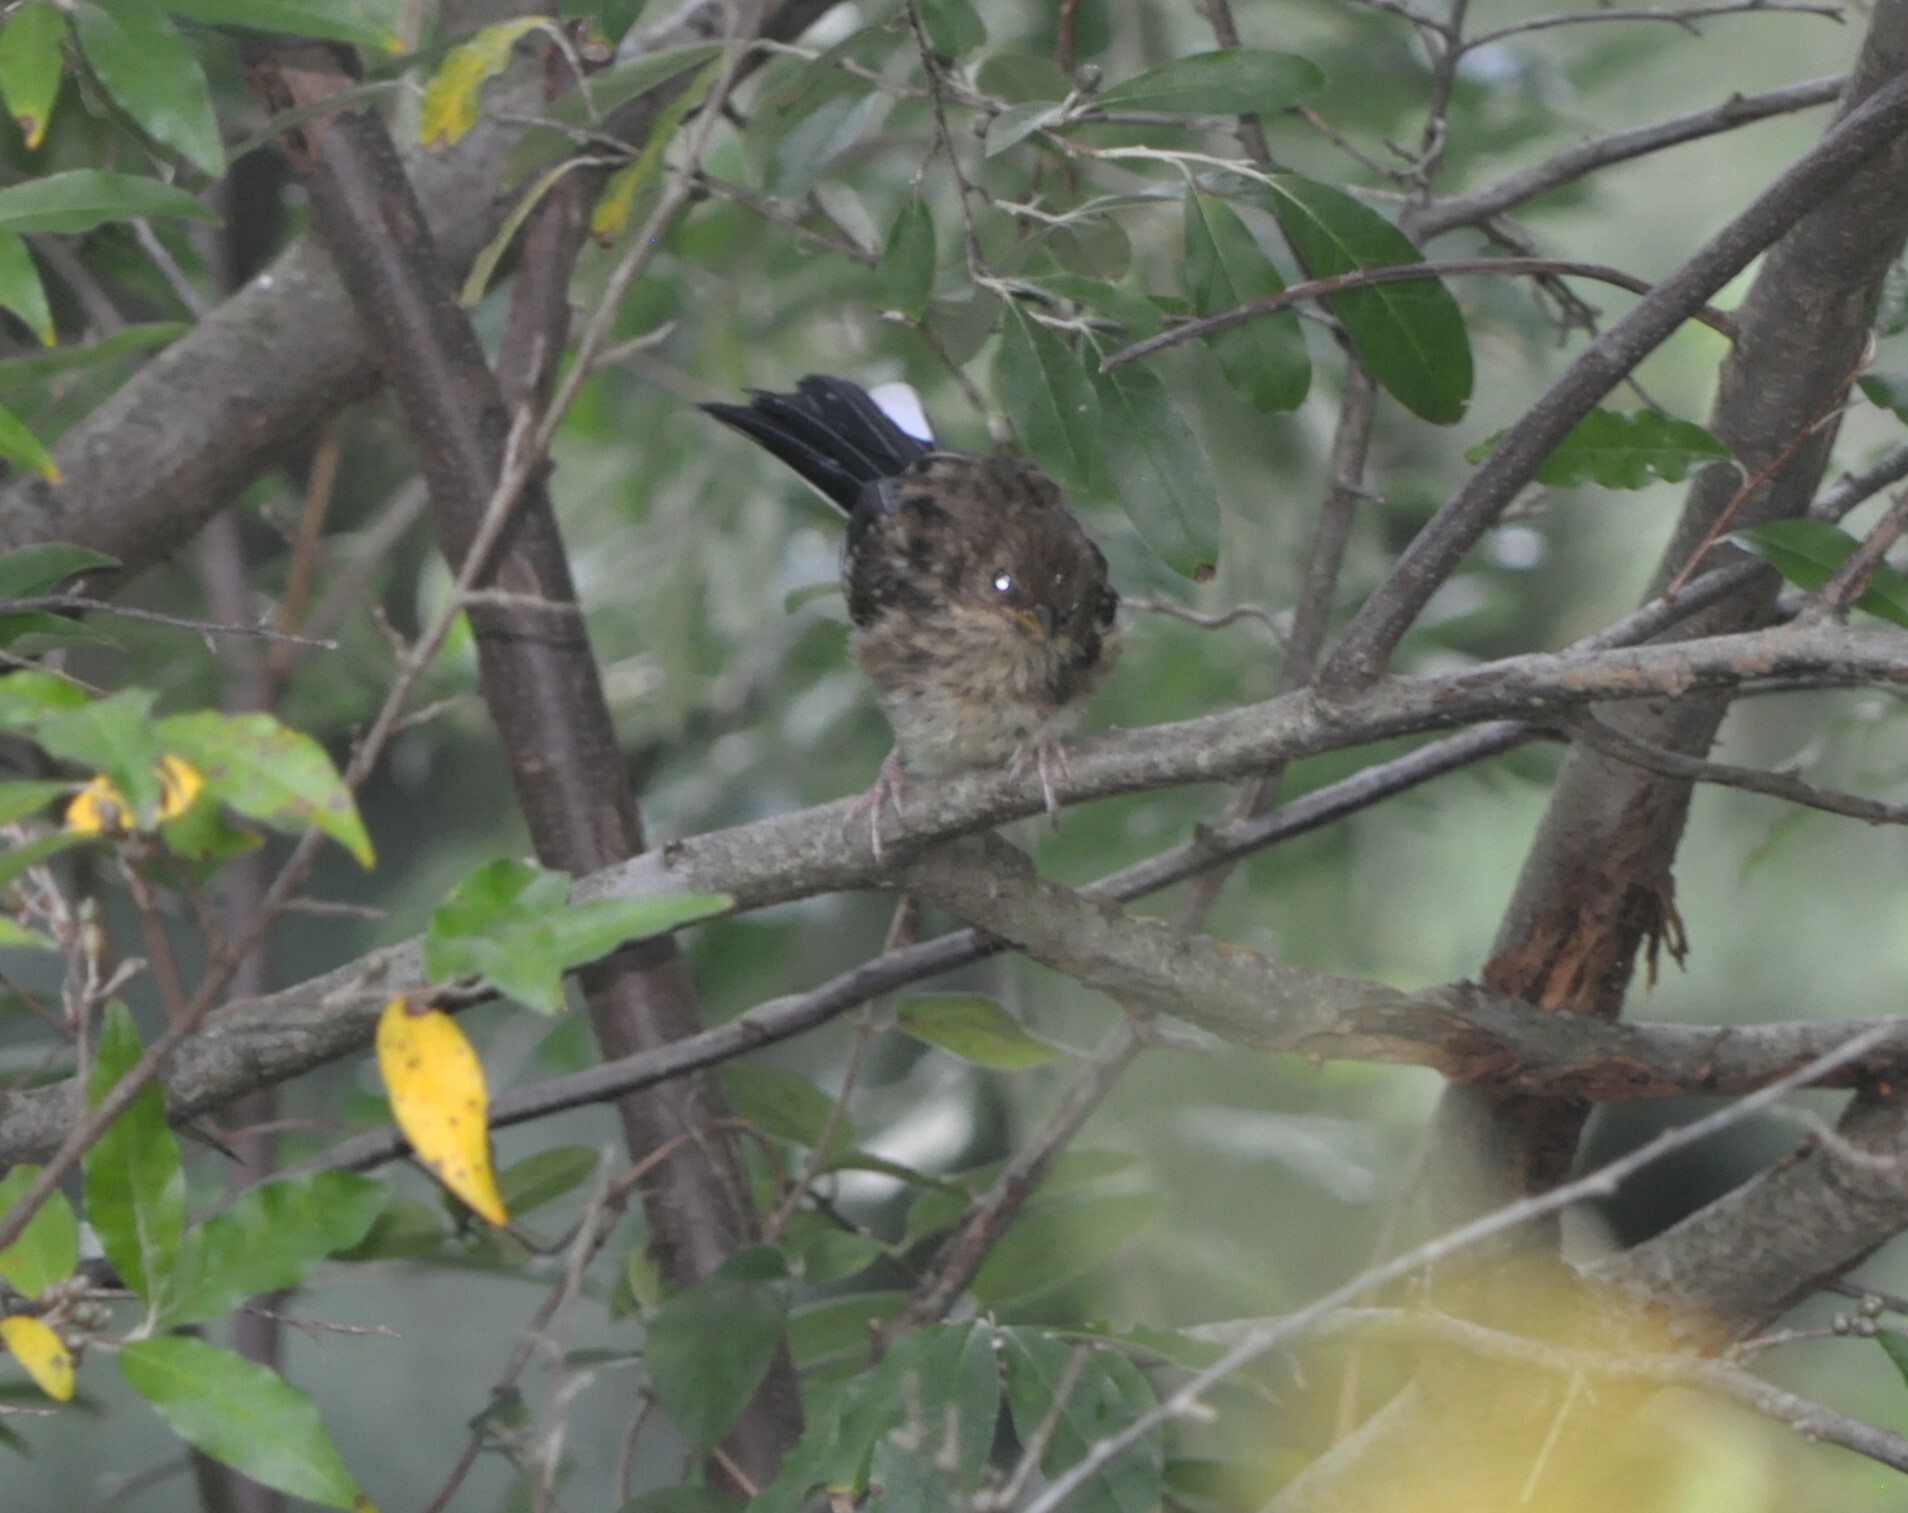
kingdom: Animalia
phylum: Chordata
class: Aves
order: Passeriformes
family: Passerellidae
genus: Pipilo
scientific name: Pipilo erythrophthalmus
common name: Eastern towhee
